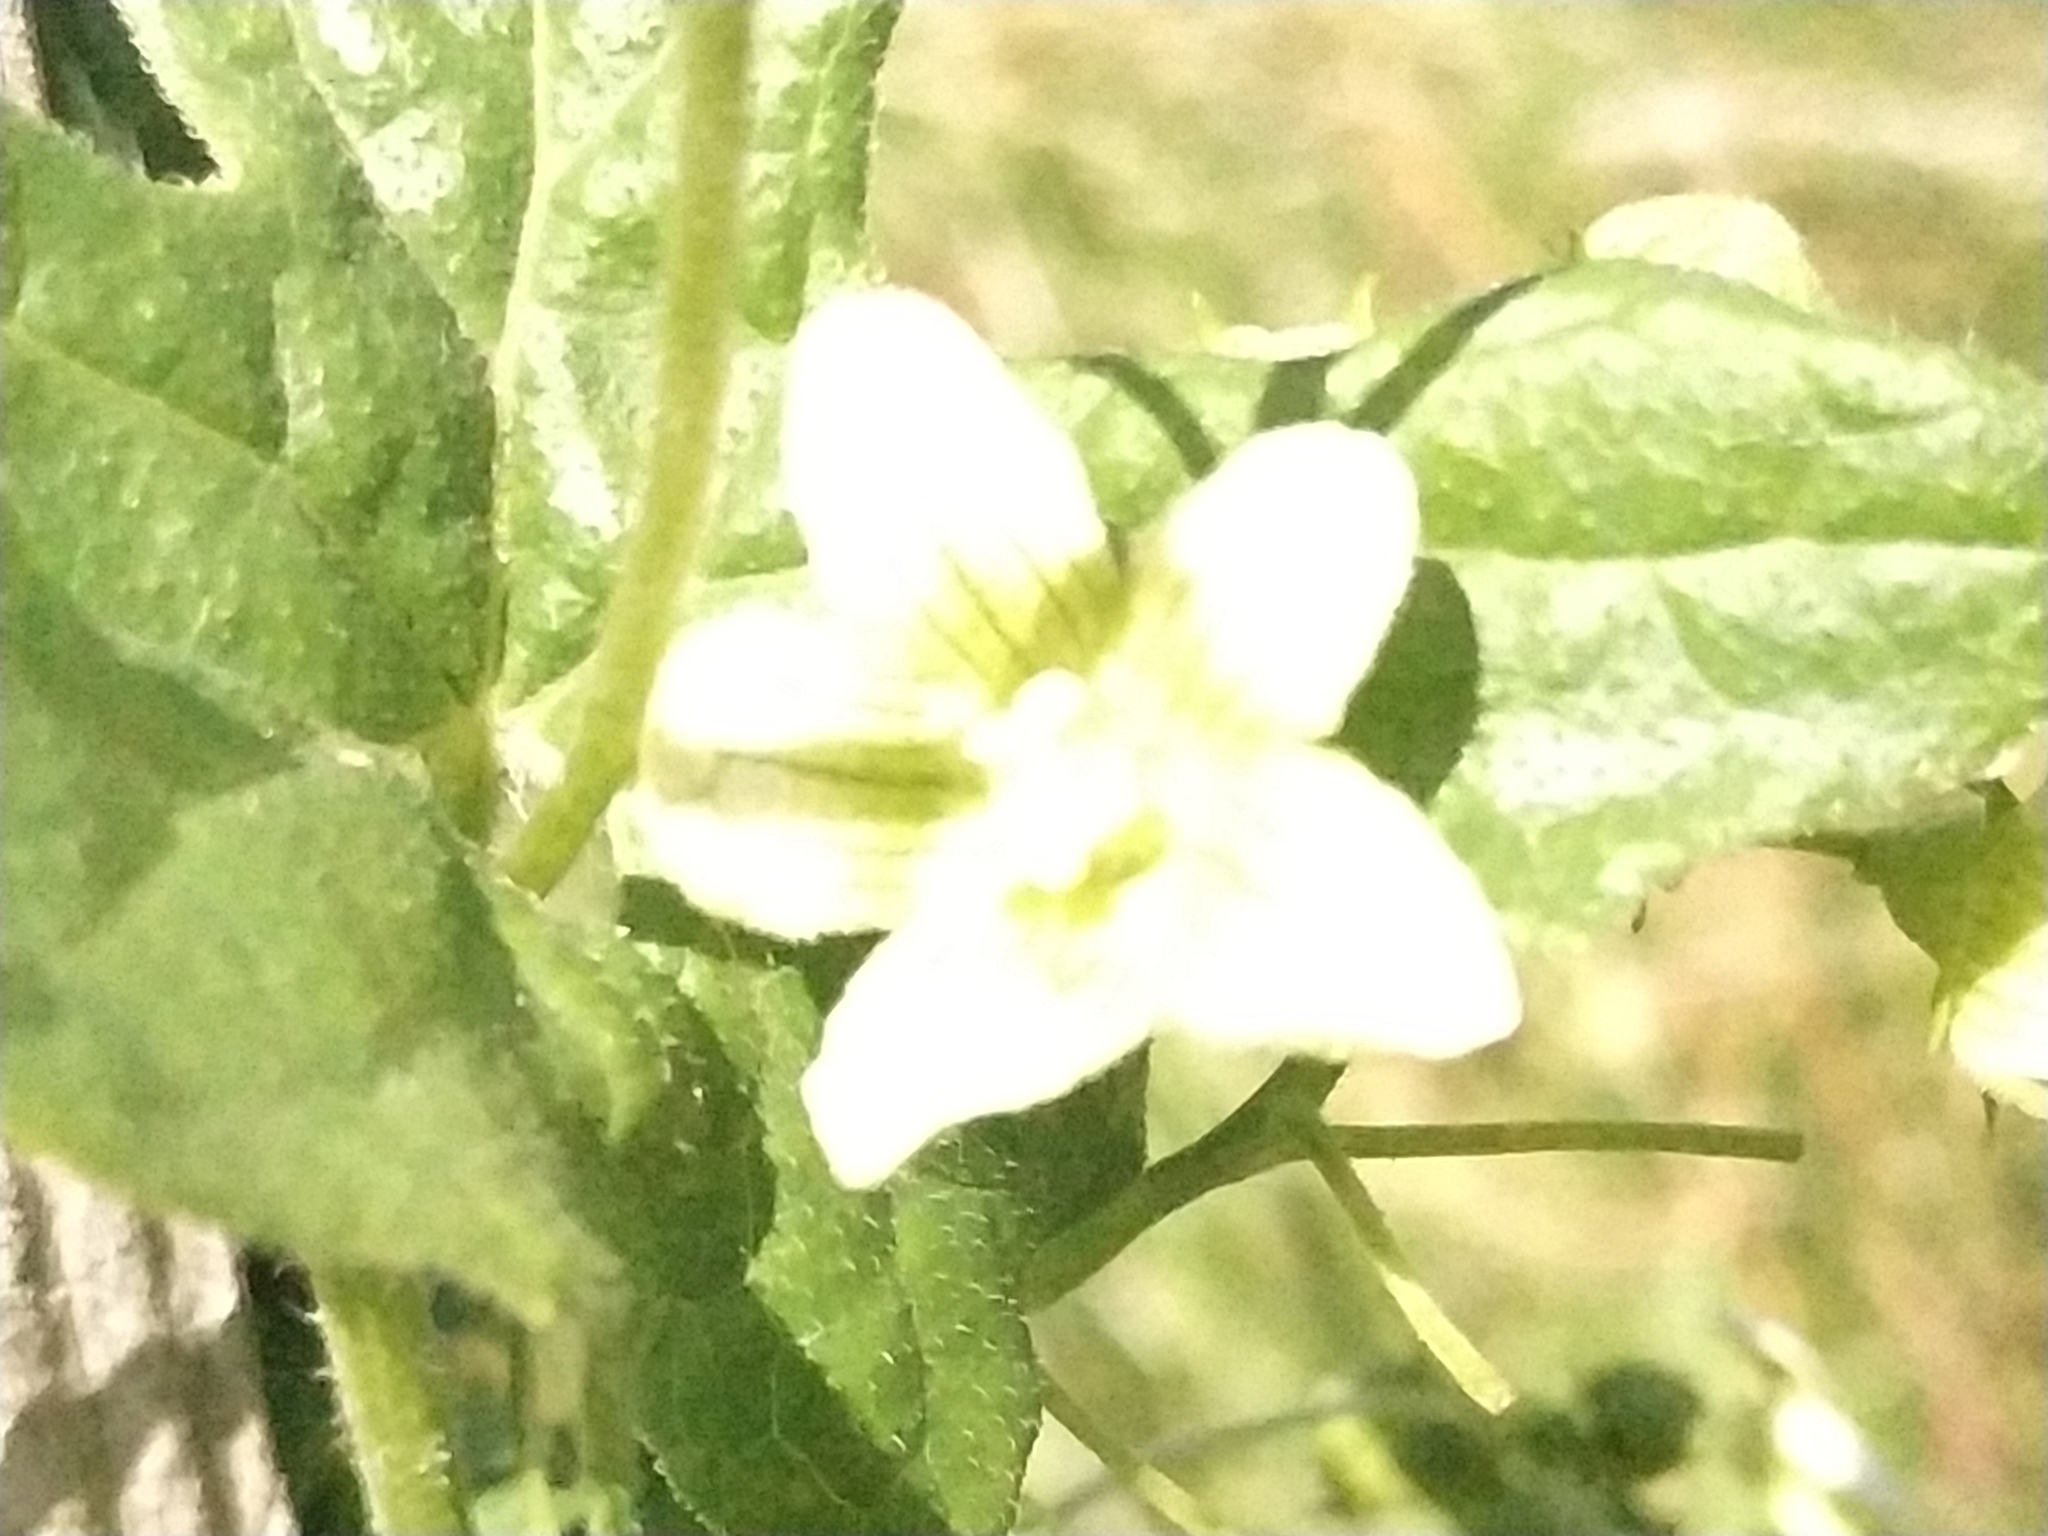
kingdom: Plantae
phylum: Tracheophyta
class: Magnoliopsida
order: Cucurbitales
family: Cucurbitaceae
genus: Bryonia
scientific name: Bryonia cretica
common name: Cretan bryony
